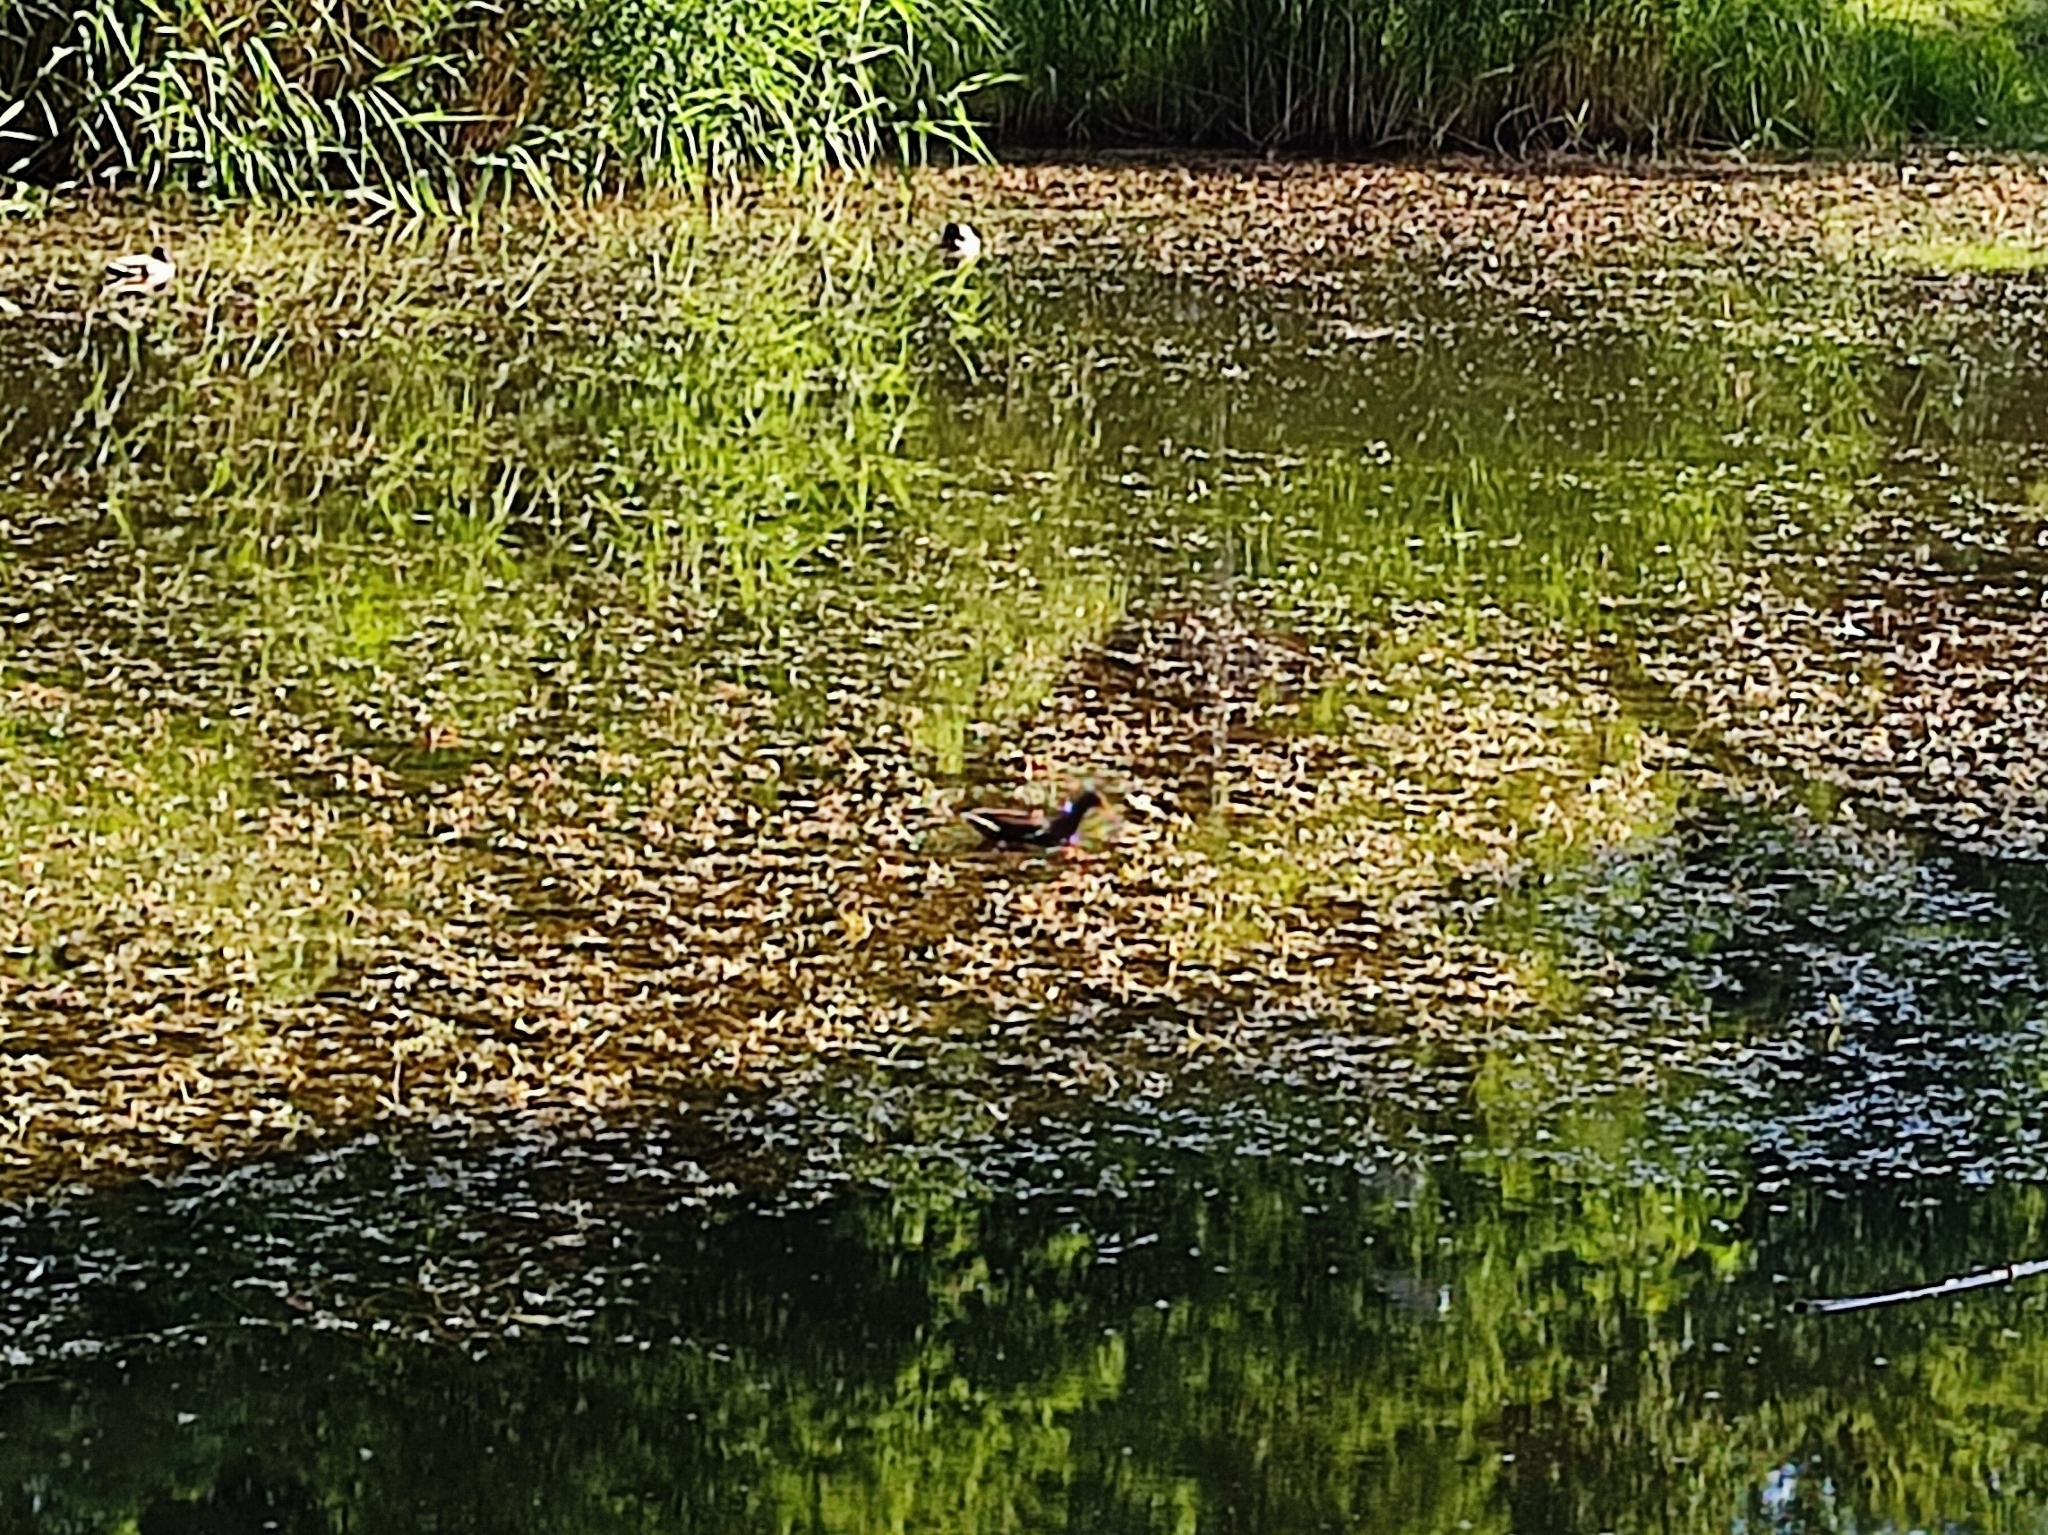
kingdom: Animalia
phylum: Chordata
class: Aves
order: Gruiformes
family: Rallidae
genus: Gallinula
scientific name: Gallinula chloropus
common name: Common moorhen
